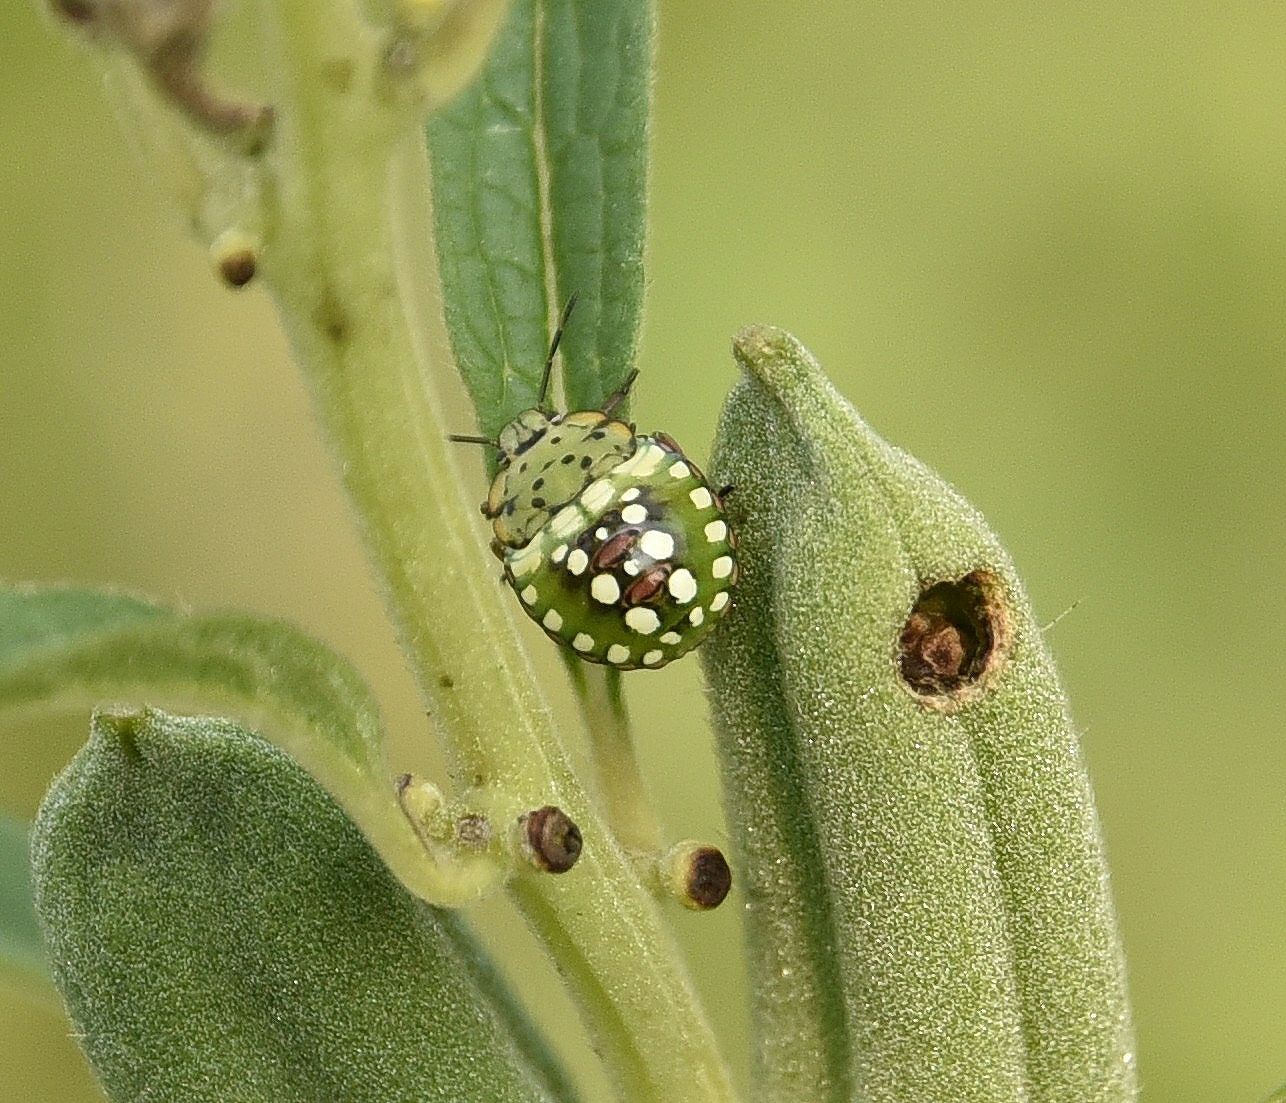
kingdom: Animalia
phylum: Arthropoda
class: Insecta
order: Hemiptera
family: Pentatomidae
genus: Nezara
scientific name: Nezara viridula
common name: Southern green stink bug
